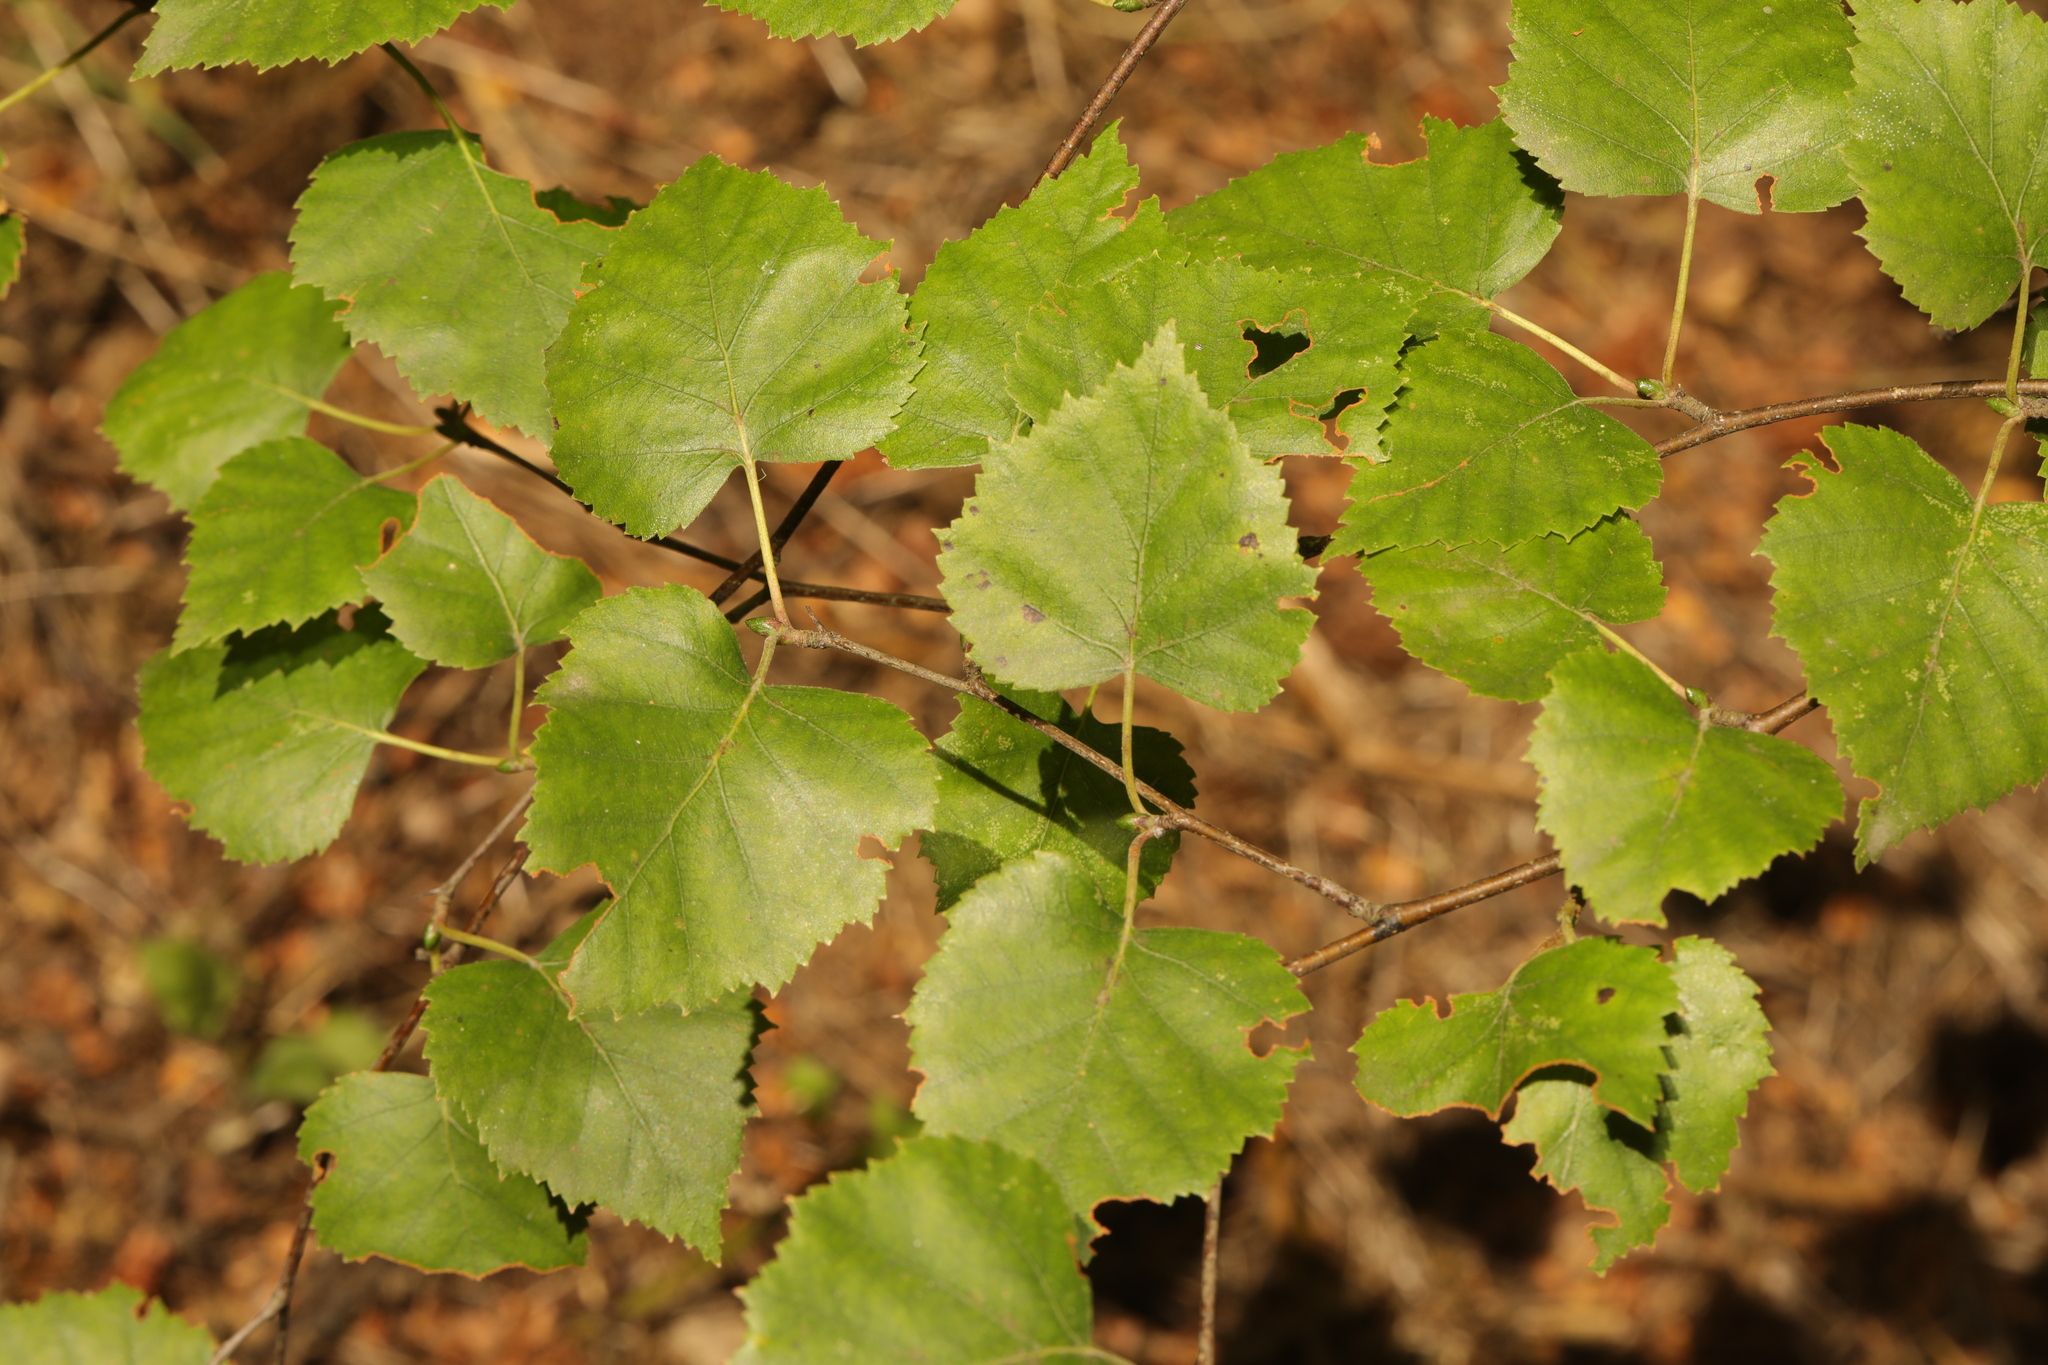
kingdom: Plantae
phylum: Tracheophyta
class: Magnoliopsida
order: Fagales
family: Betulaceae
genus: Betula
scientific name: Betula pendula
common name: Silver birch
